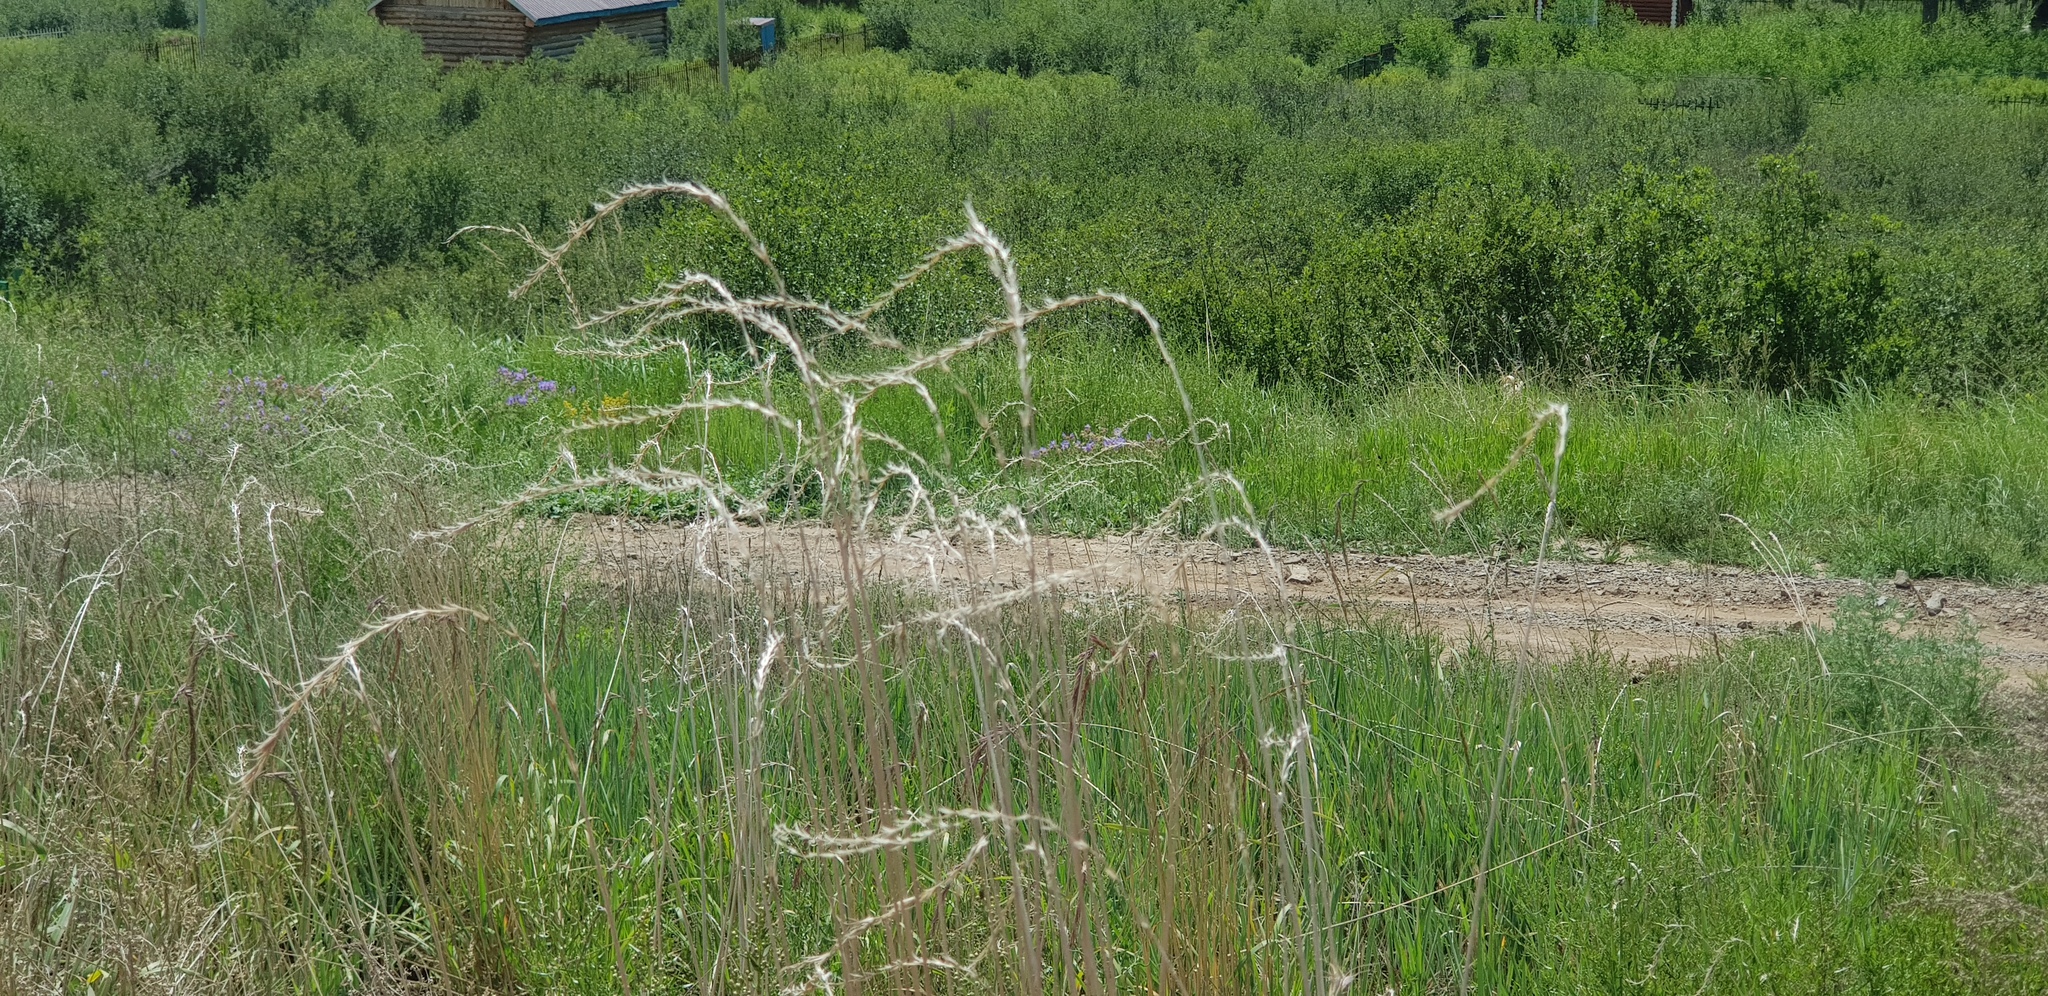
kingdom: Plantae
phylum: Tracheophyta
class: Liliopsida
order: Poales
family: Poaceae
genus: Elymus
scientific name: Elymus sibiricus
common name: Siberian wildrye
